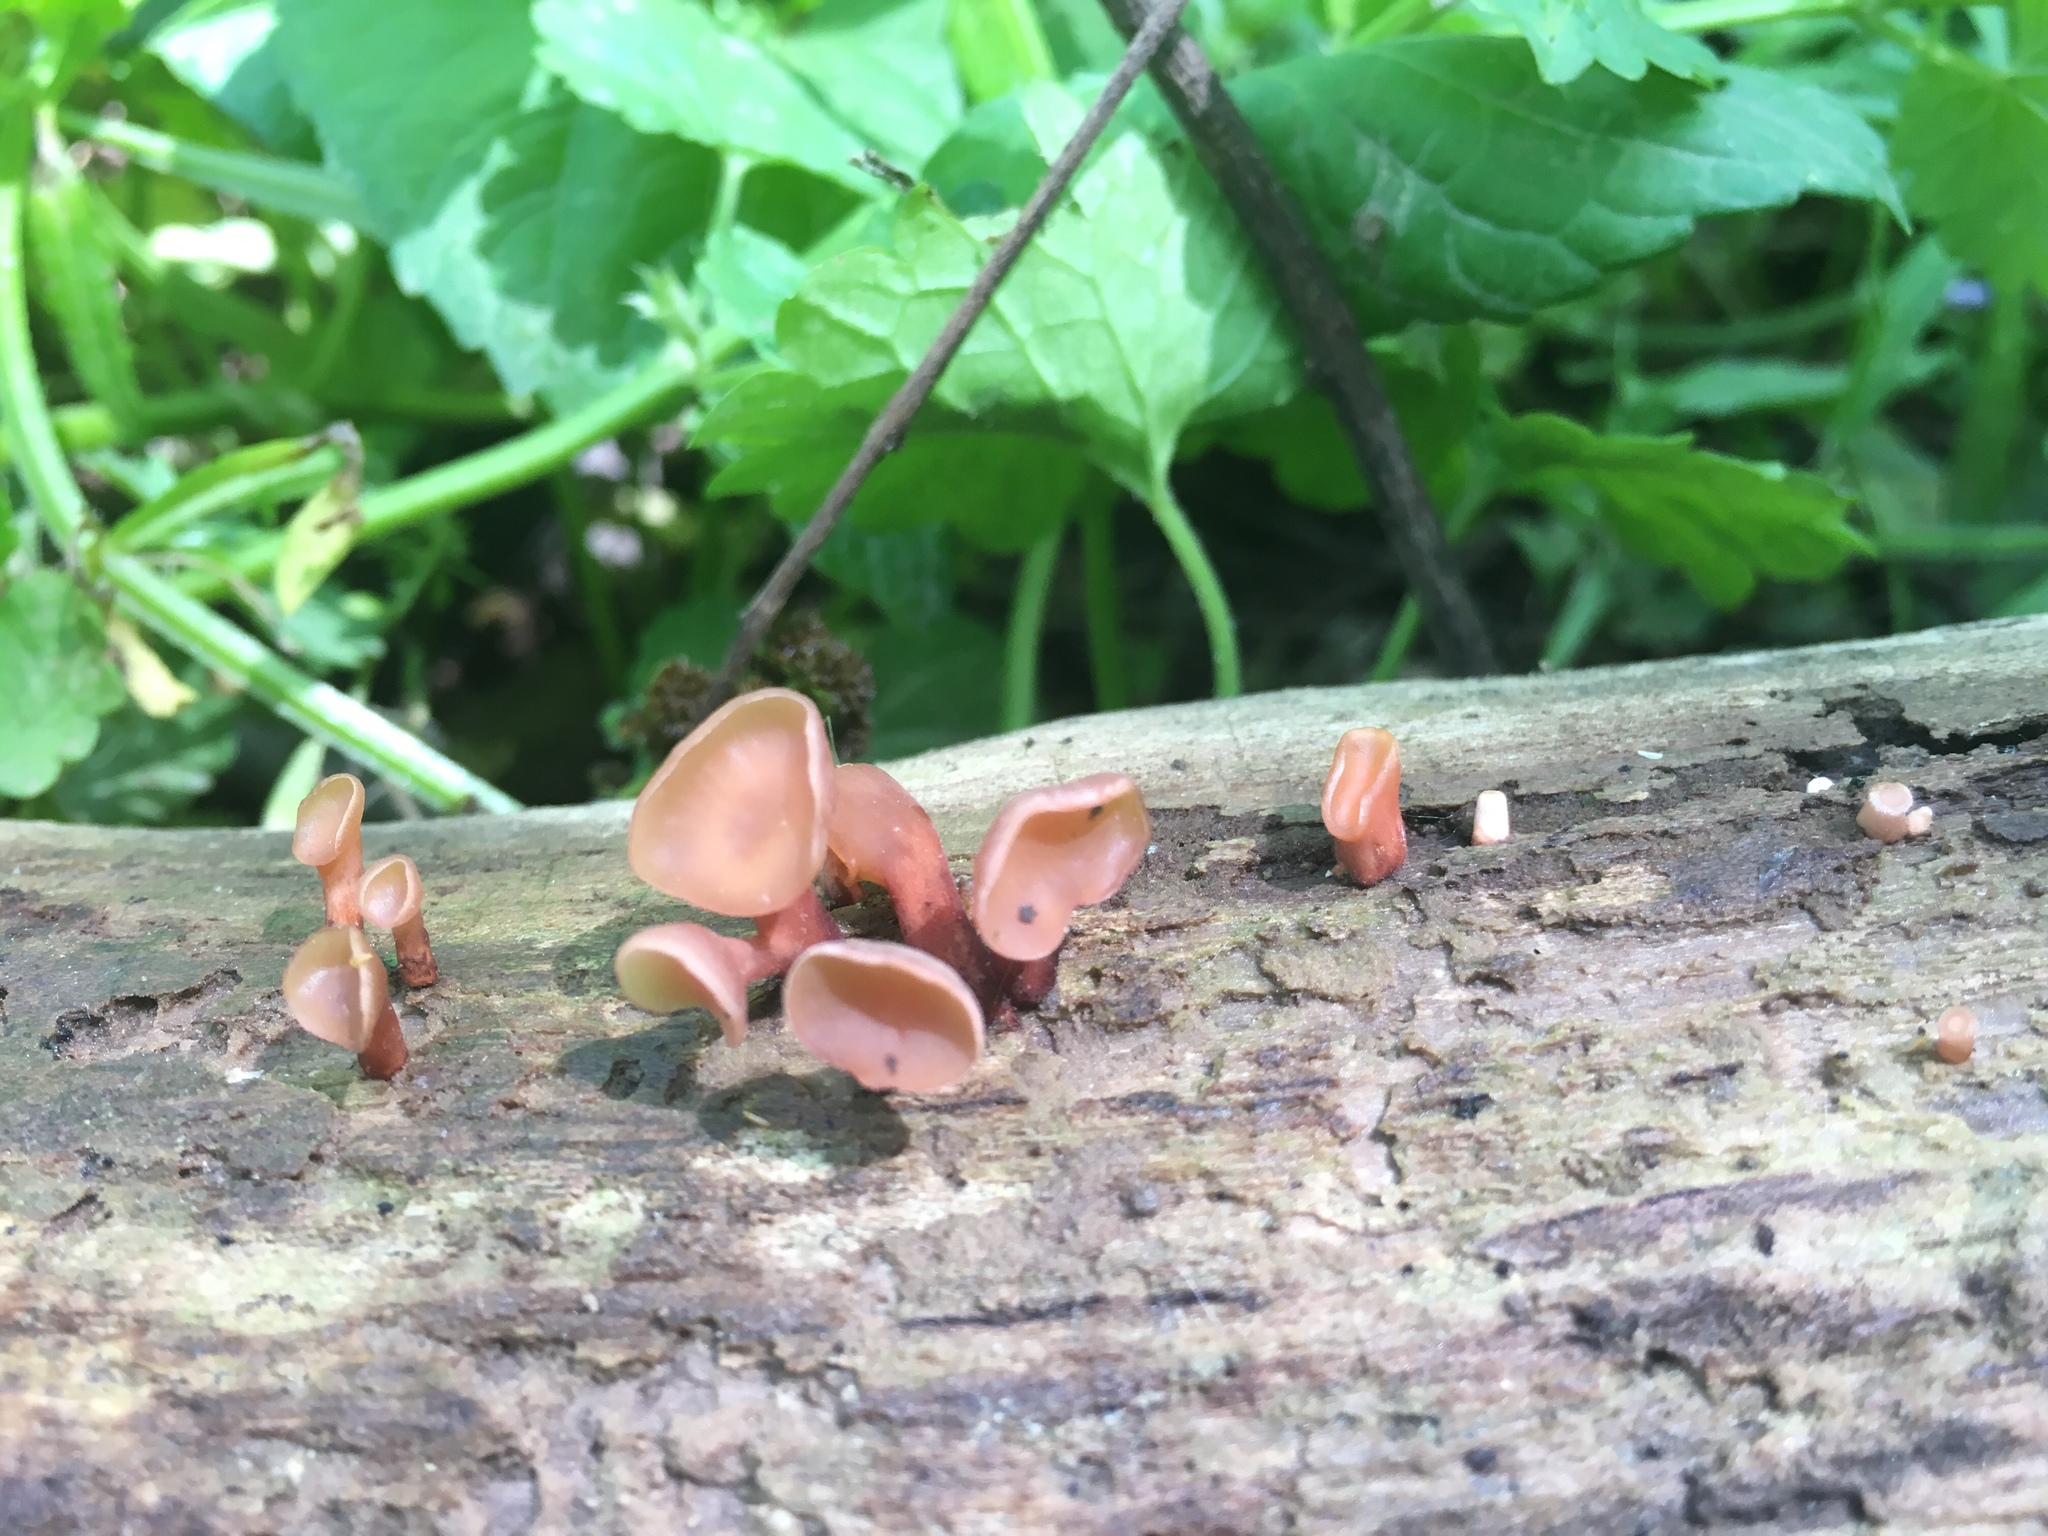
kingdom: Fungi
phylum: Basidiomycota
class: Dacrymycetes
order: Dacrymycetales
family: Dacrymycetaceae
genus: Dacryopinax
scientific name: Dacryopinax elegans
